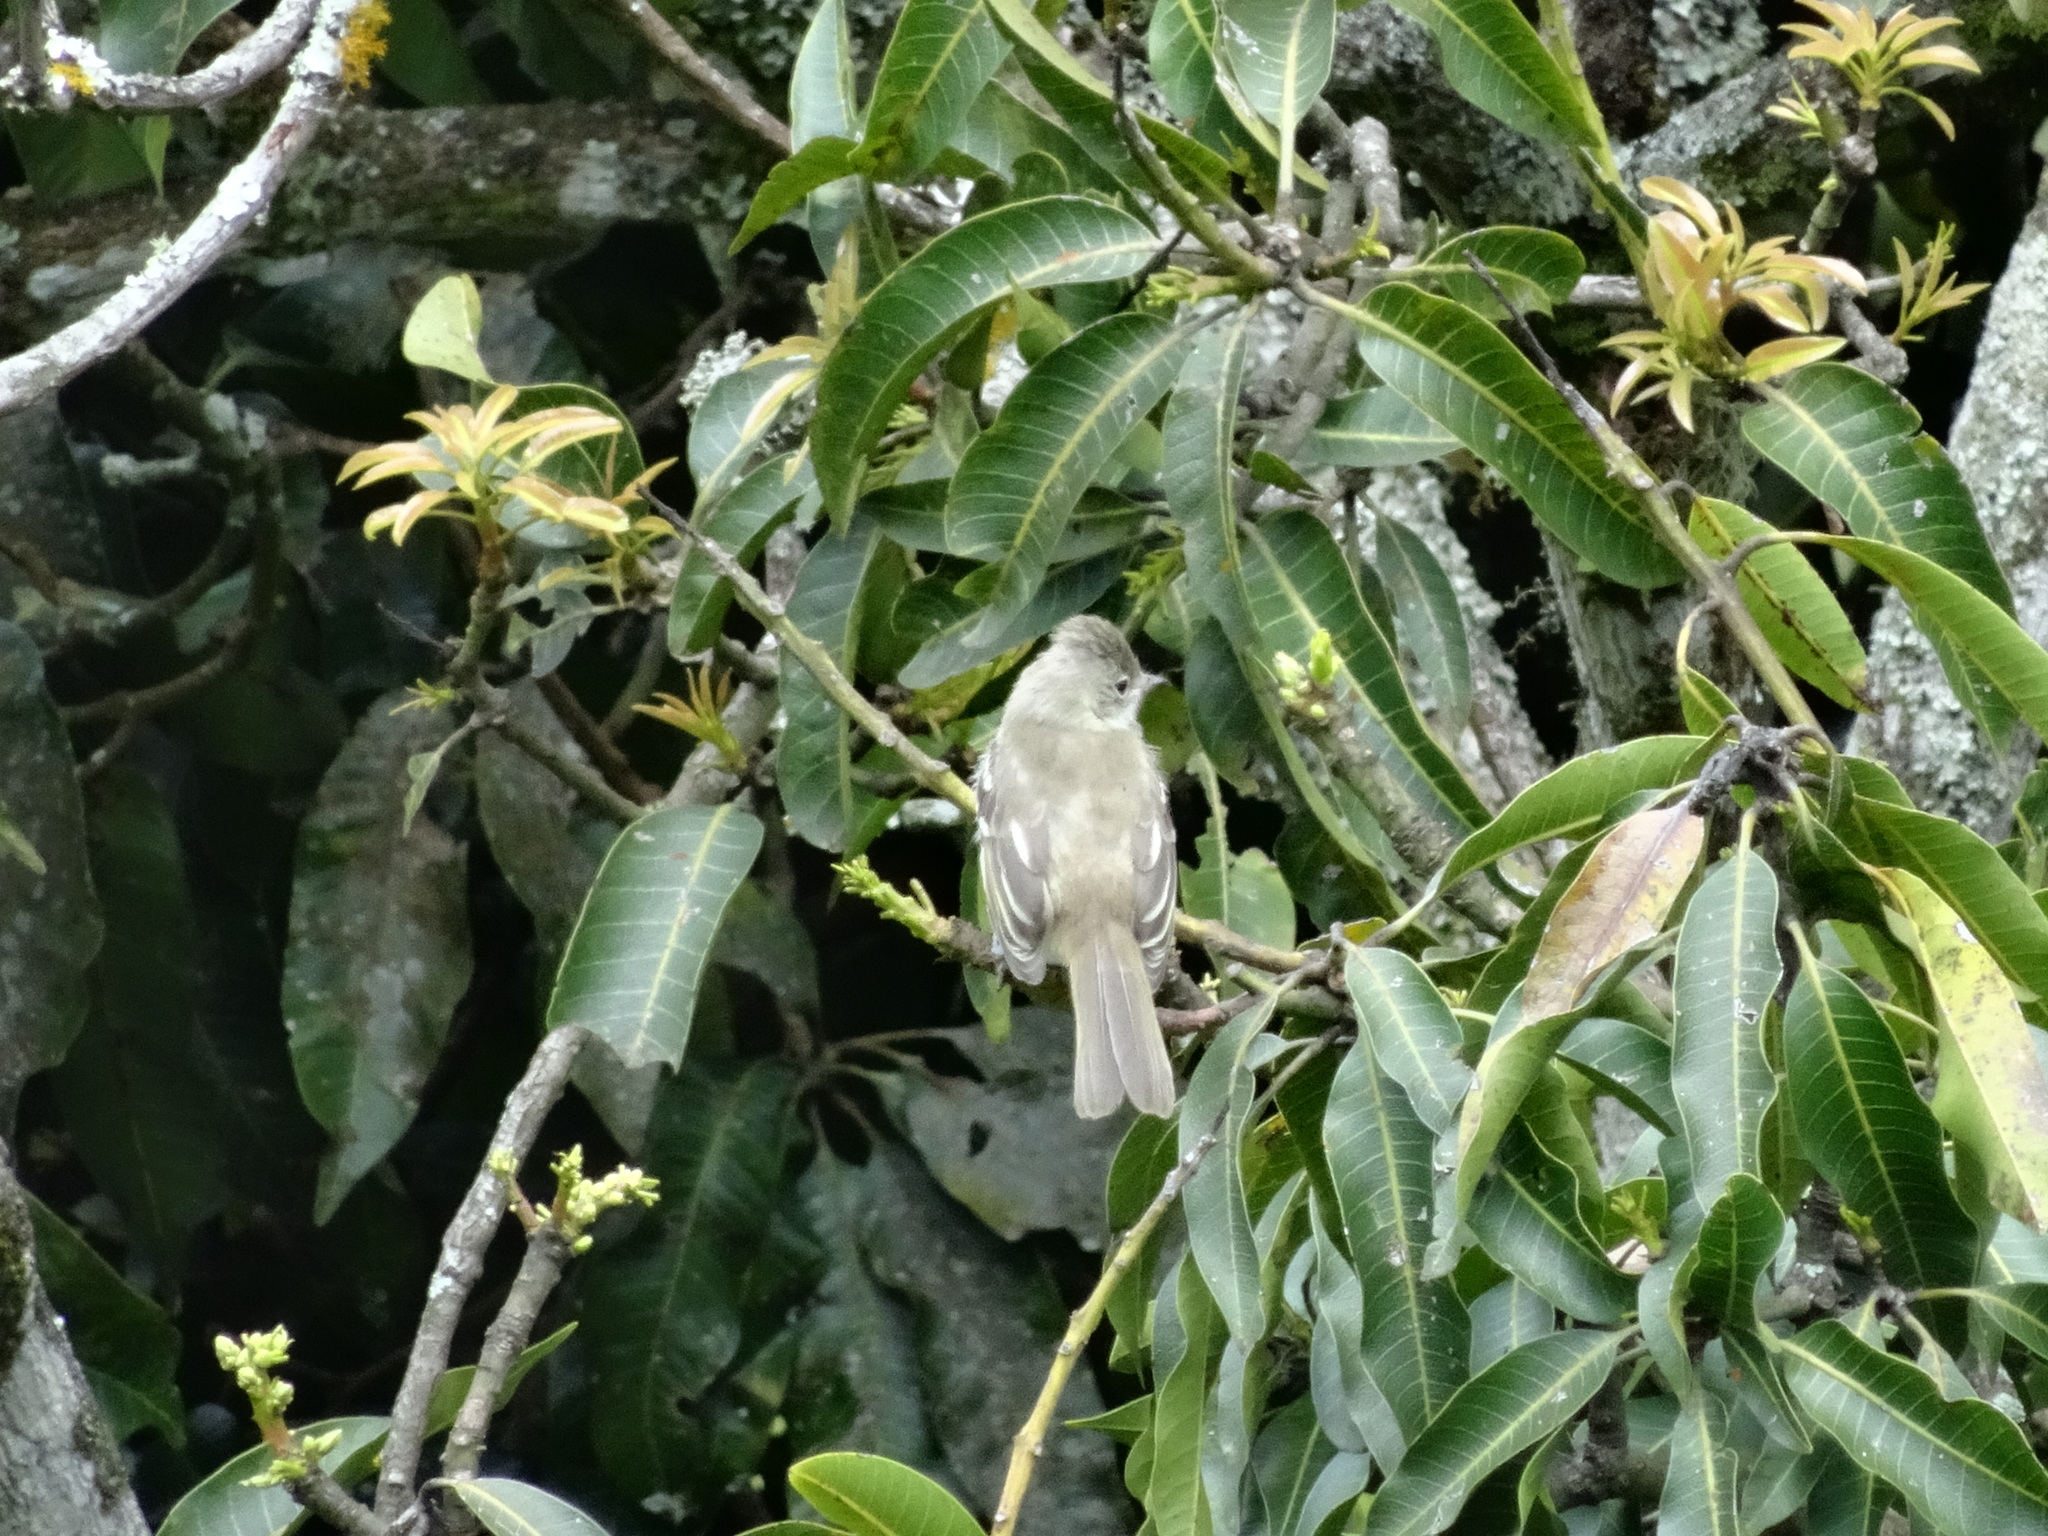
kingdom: Animalia
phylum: Chordata
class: Aves
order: Passeriformes
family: Tyrannidae
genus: Elaenia
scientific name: Elaenia flavogaster
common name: Yellow-bellied elaenia
